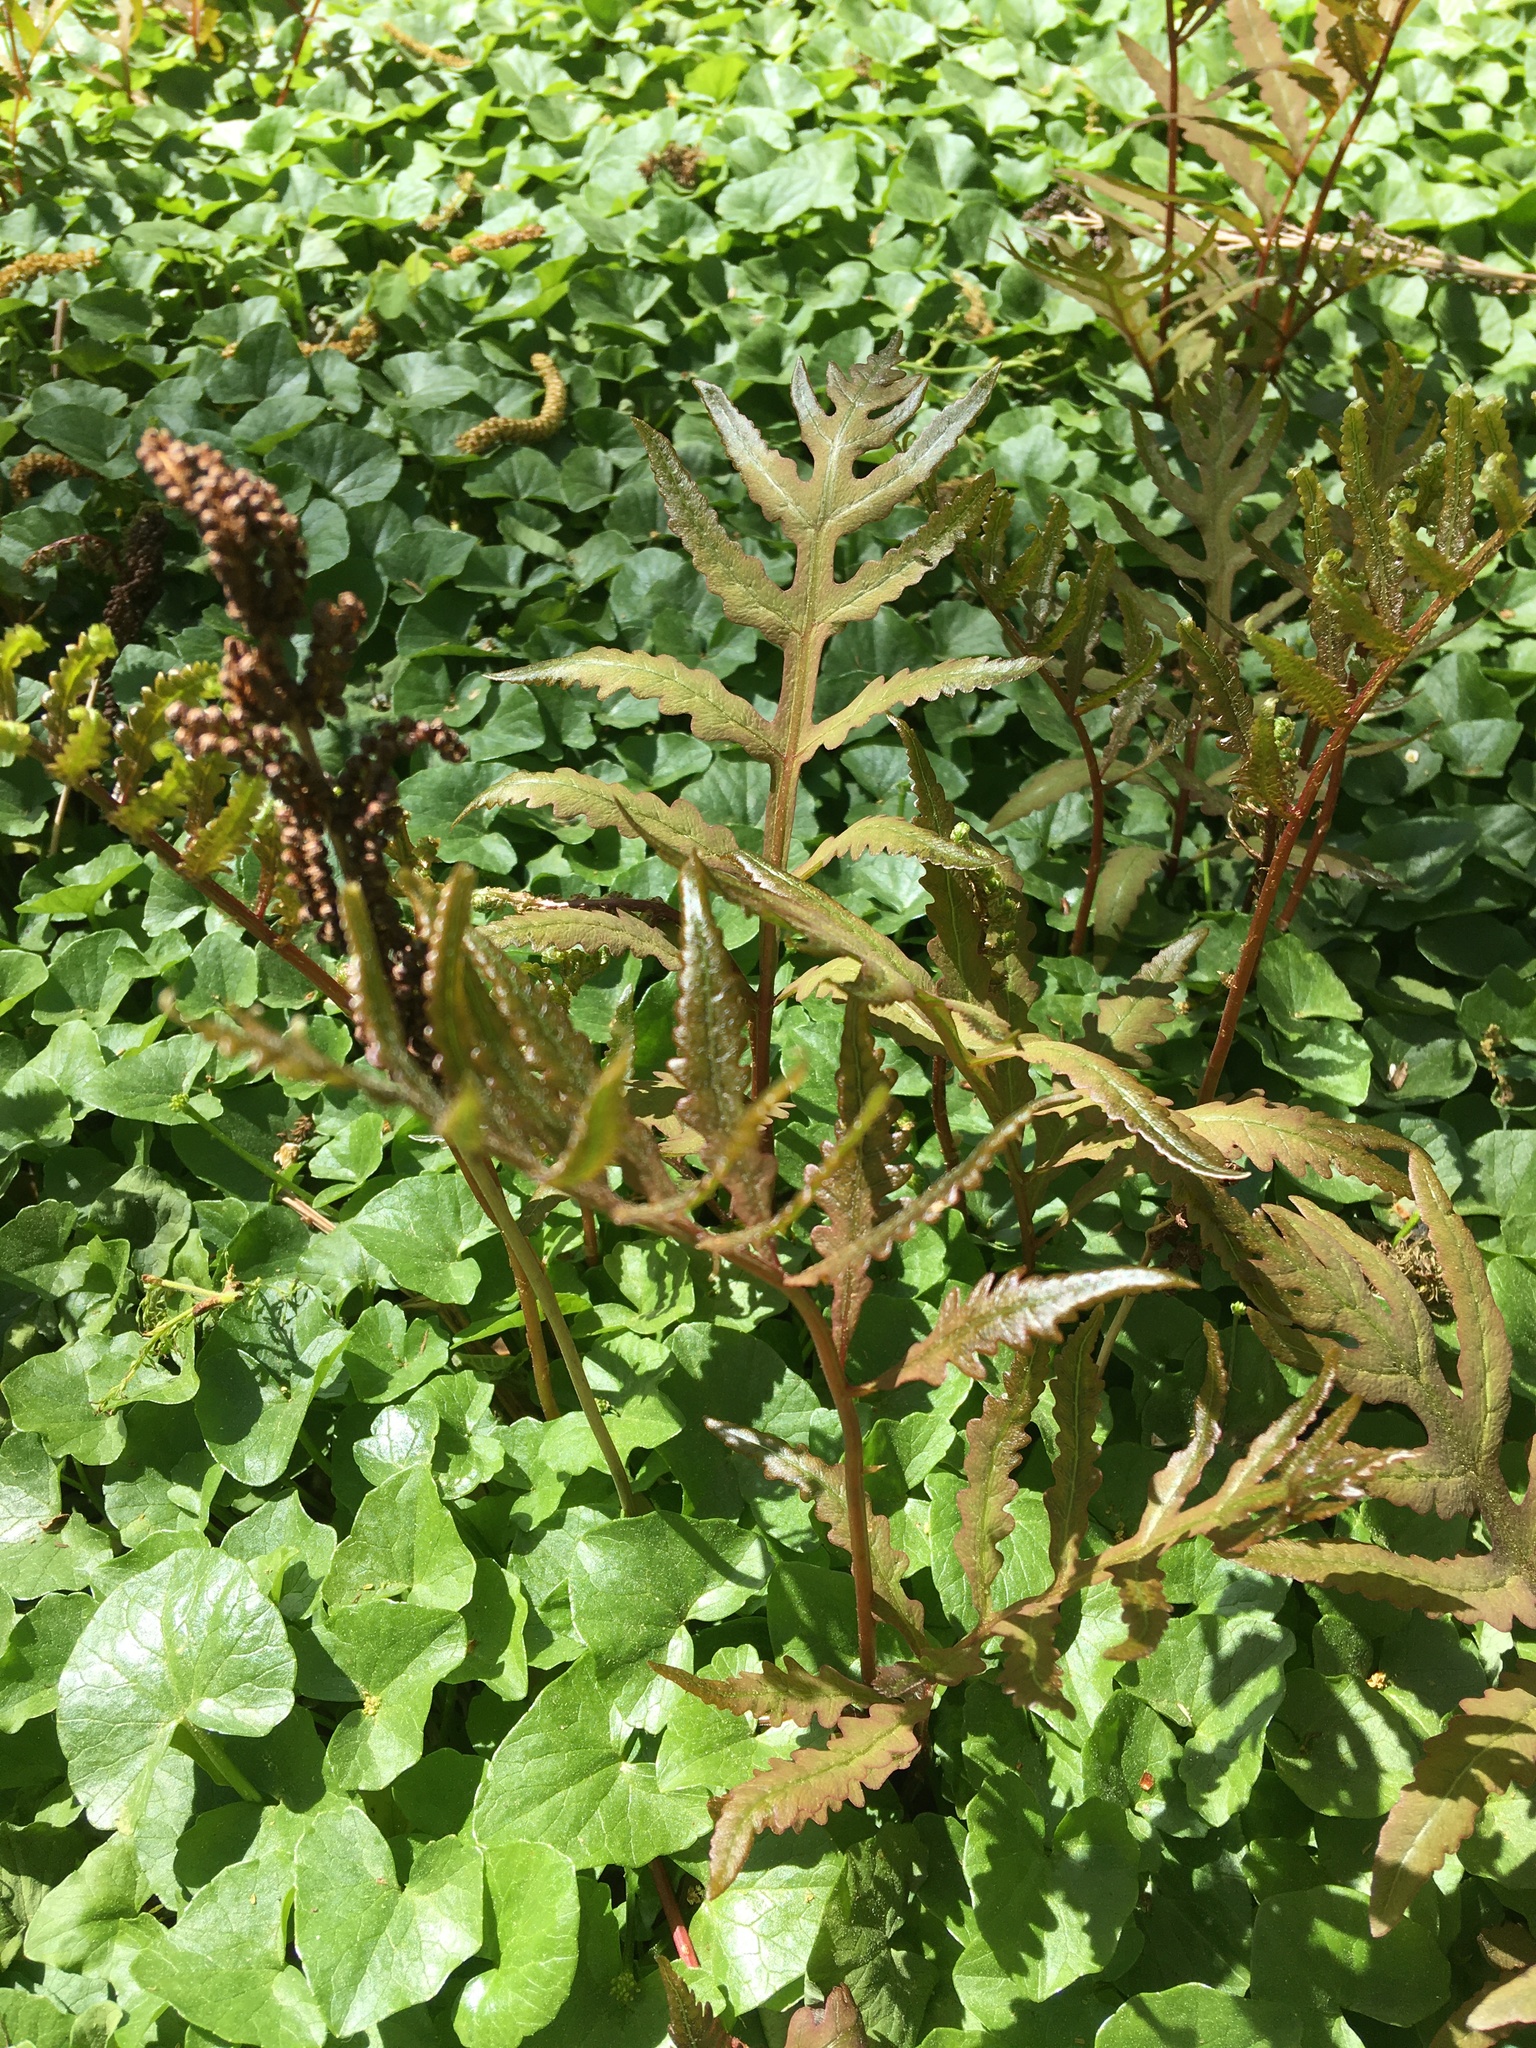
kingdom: Plantae
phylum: Tracheophyta
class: Polypodiopsida
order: Polypodiales
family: Onocleaceae
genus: Onoclea
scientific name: Onoclea sensibilis
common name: Sensitive fern
